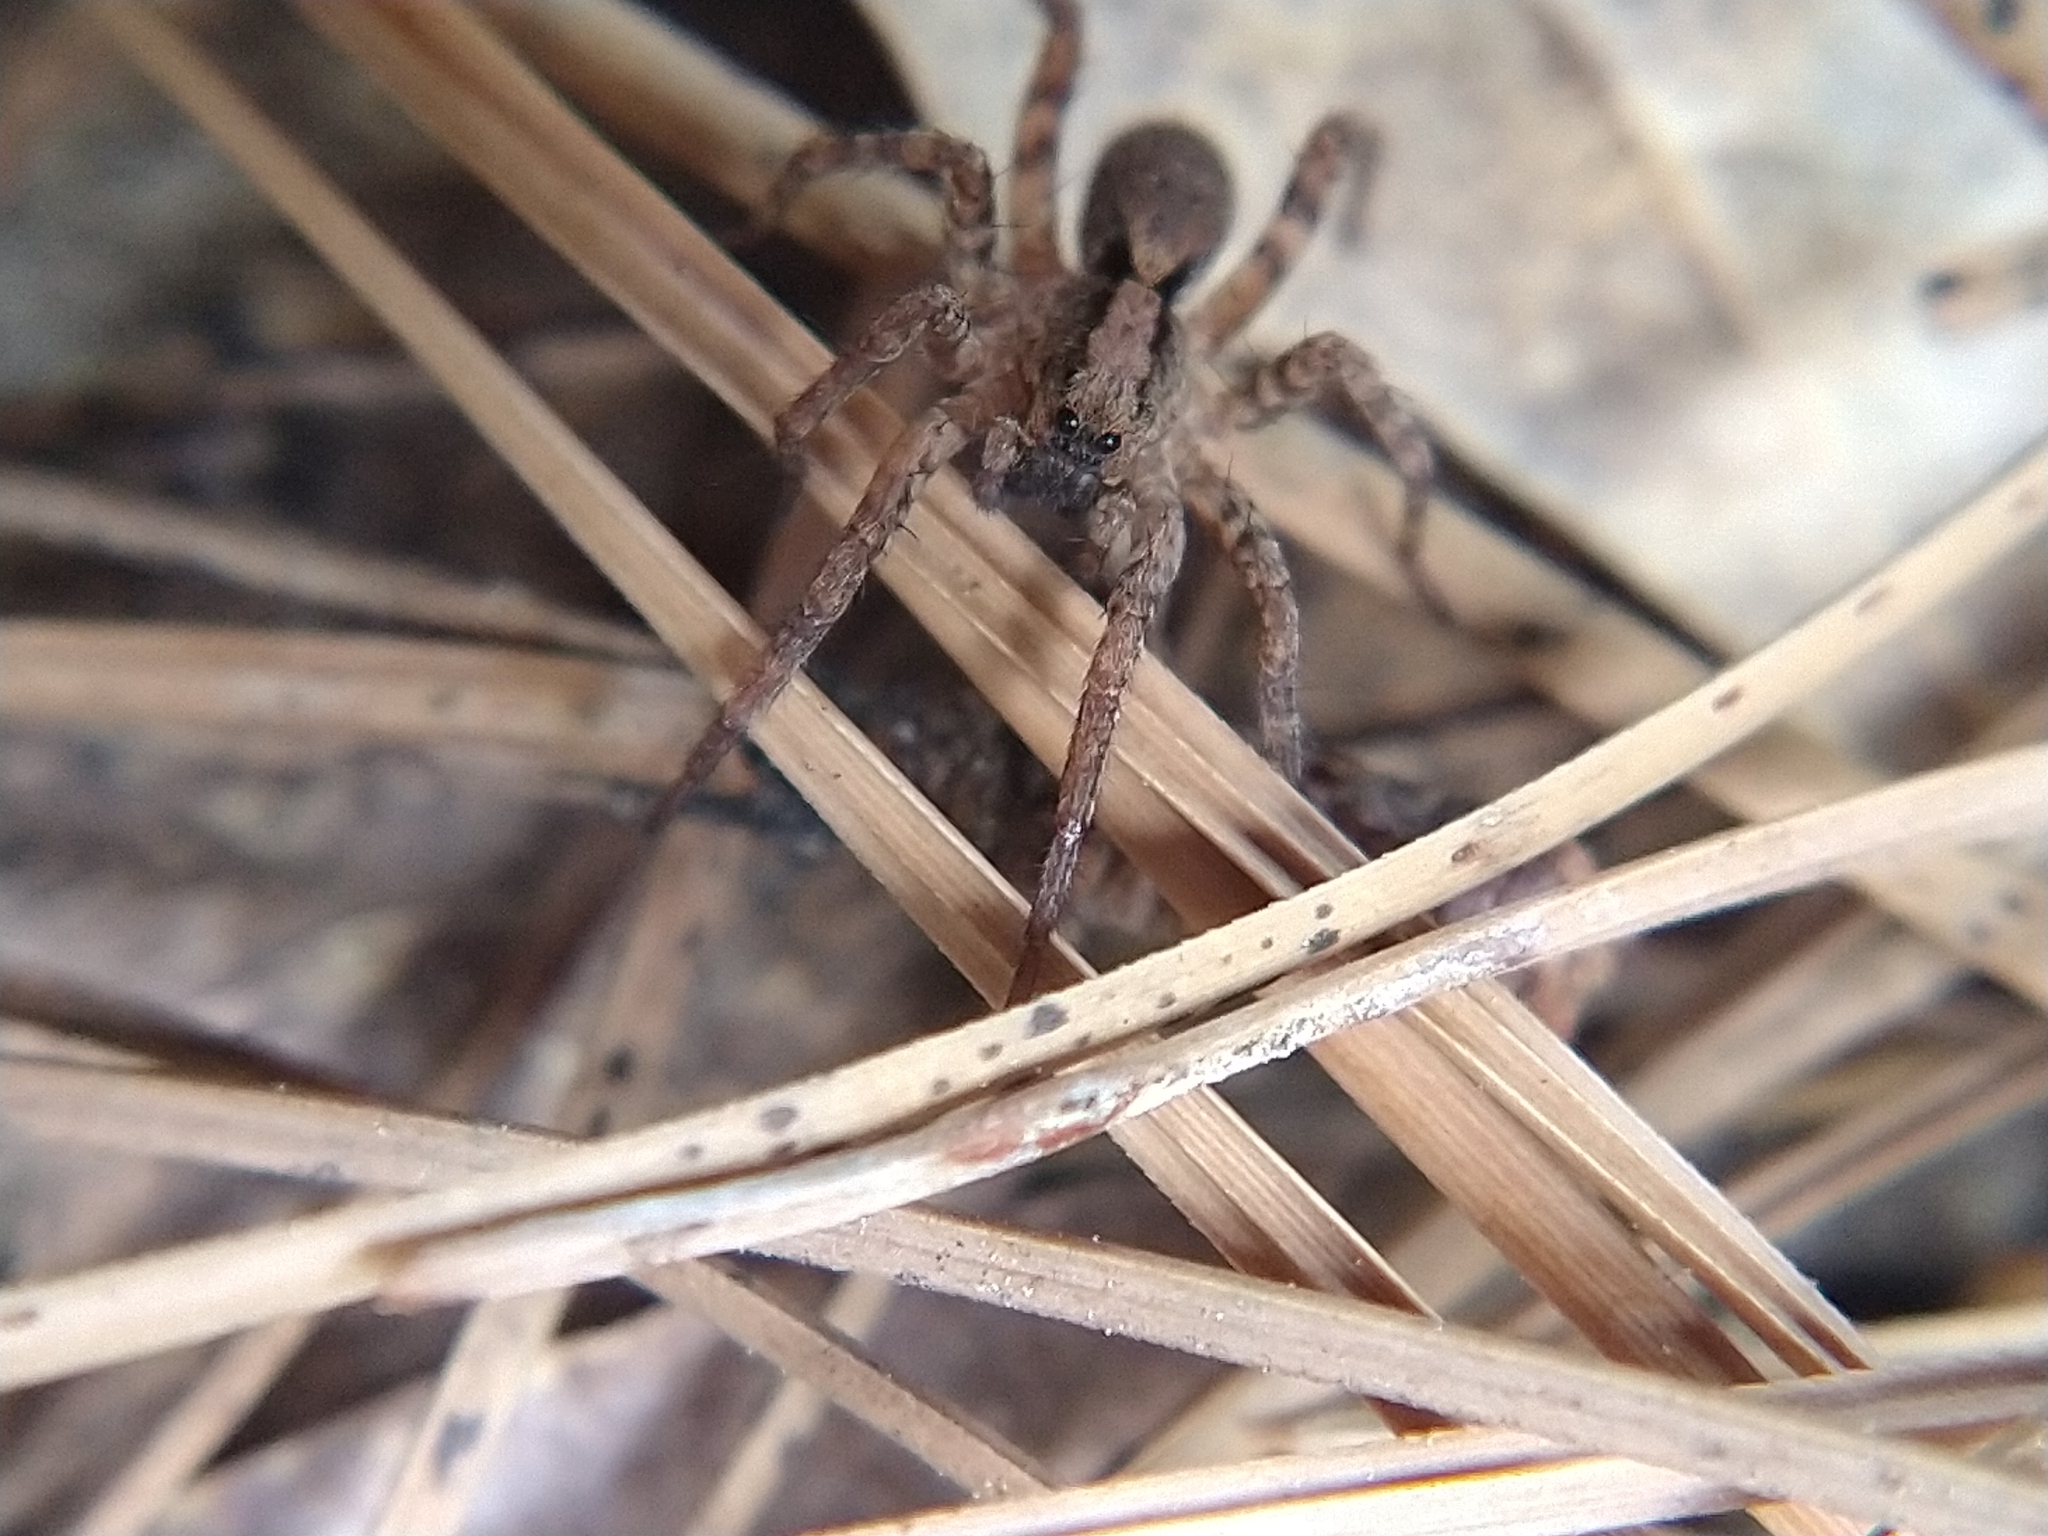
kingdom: Animalia
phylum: Arthropoda
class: Arachnida
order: Araneae
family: Lycosidae
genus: Alopecosa
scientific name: Alopecosa kochi
